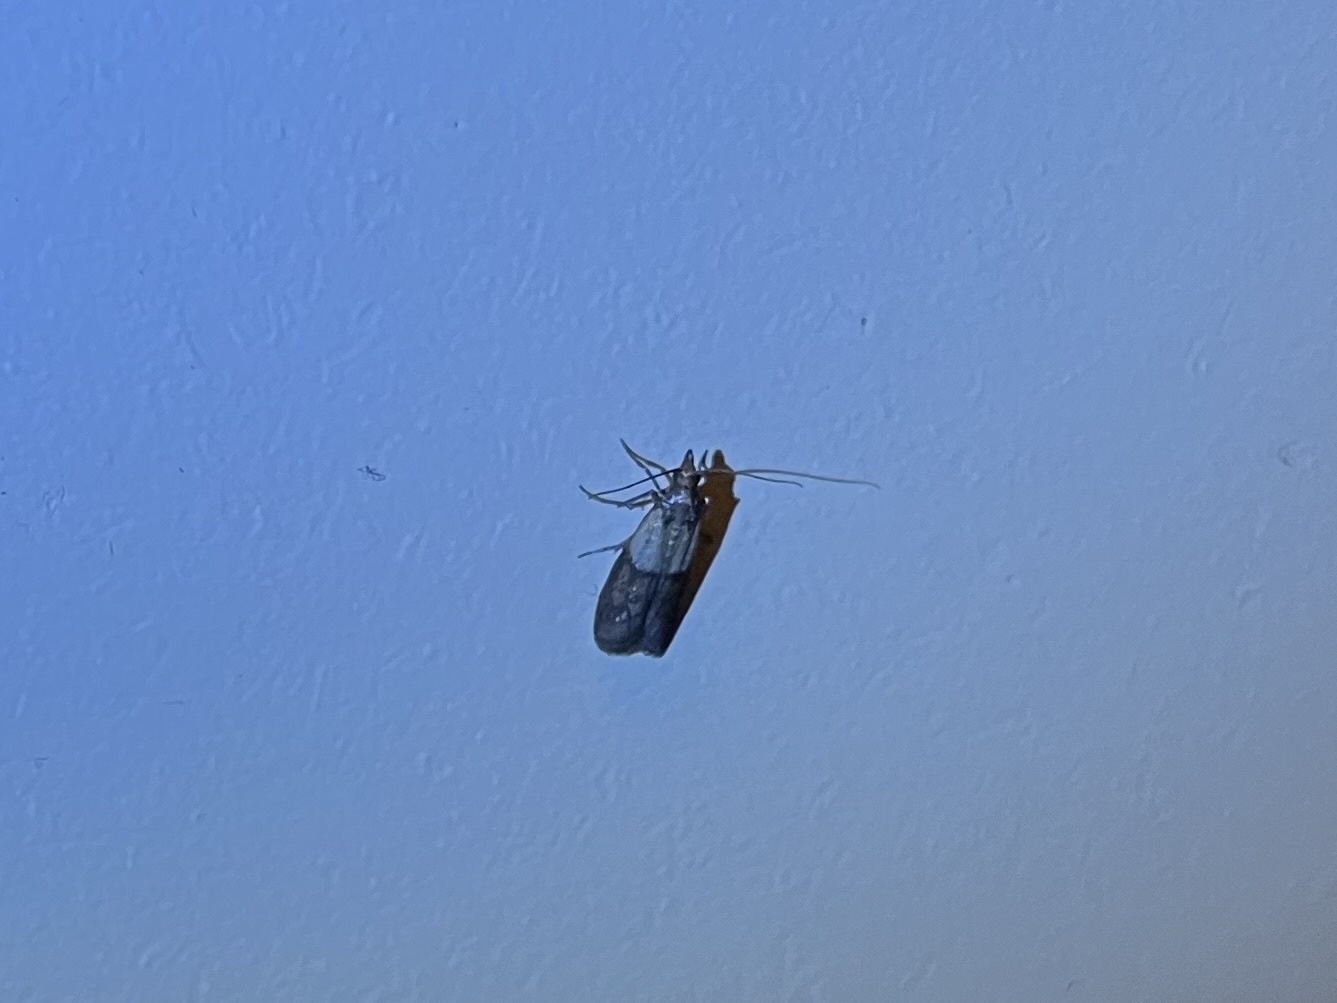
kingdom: Animalia
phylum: Arthropoda
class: Insecta
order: Lepidoptera
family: Pyralidae
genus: Plodia
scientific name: Plodia interpunctella
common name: Indian meal moth
